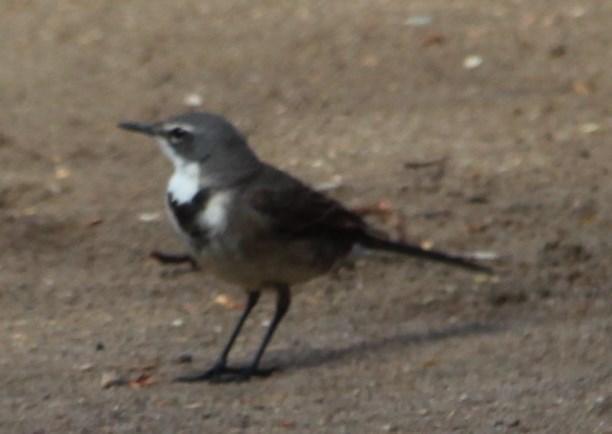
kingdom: Animalia
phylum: Chordata
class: Aves
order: Passeriformes
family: Motacillidae
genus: Motacilla
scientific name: Motacilla capensis
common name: Cape wagtail
